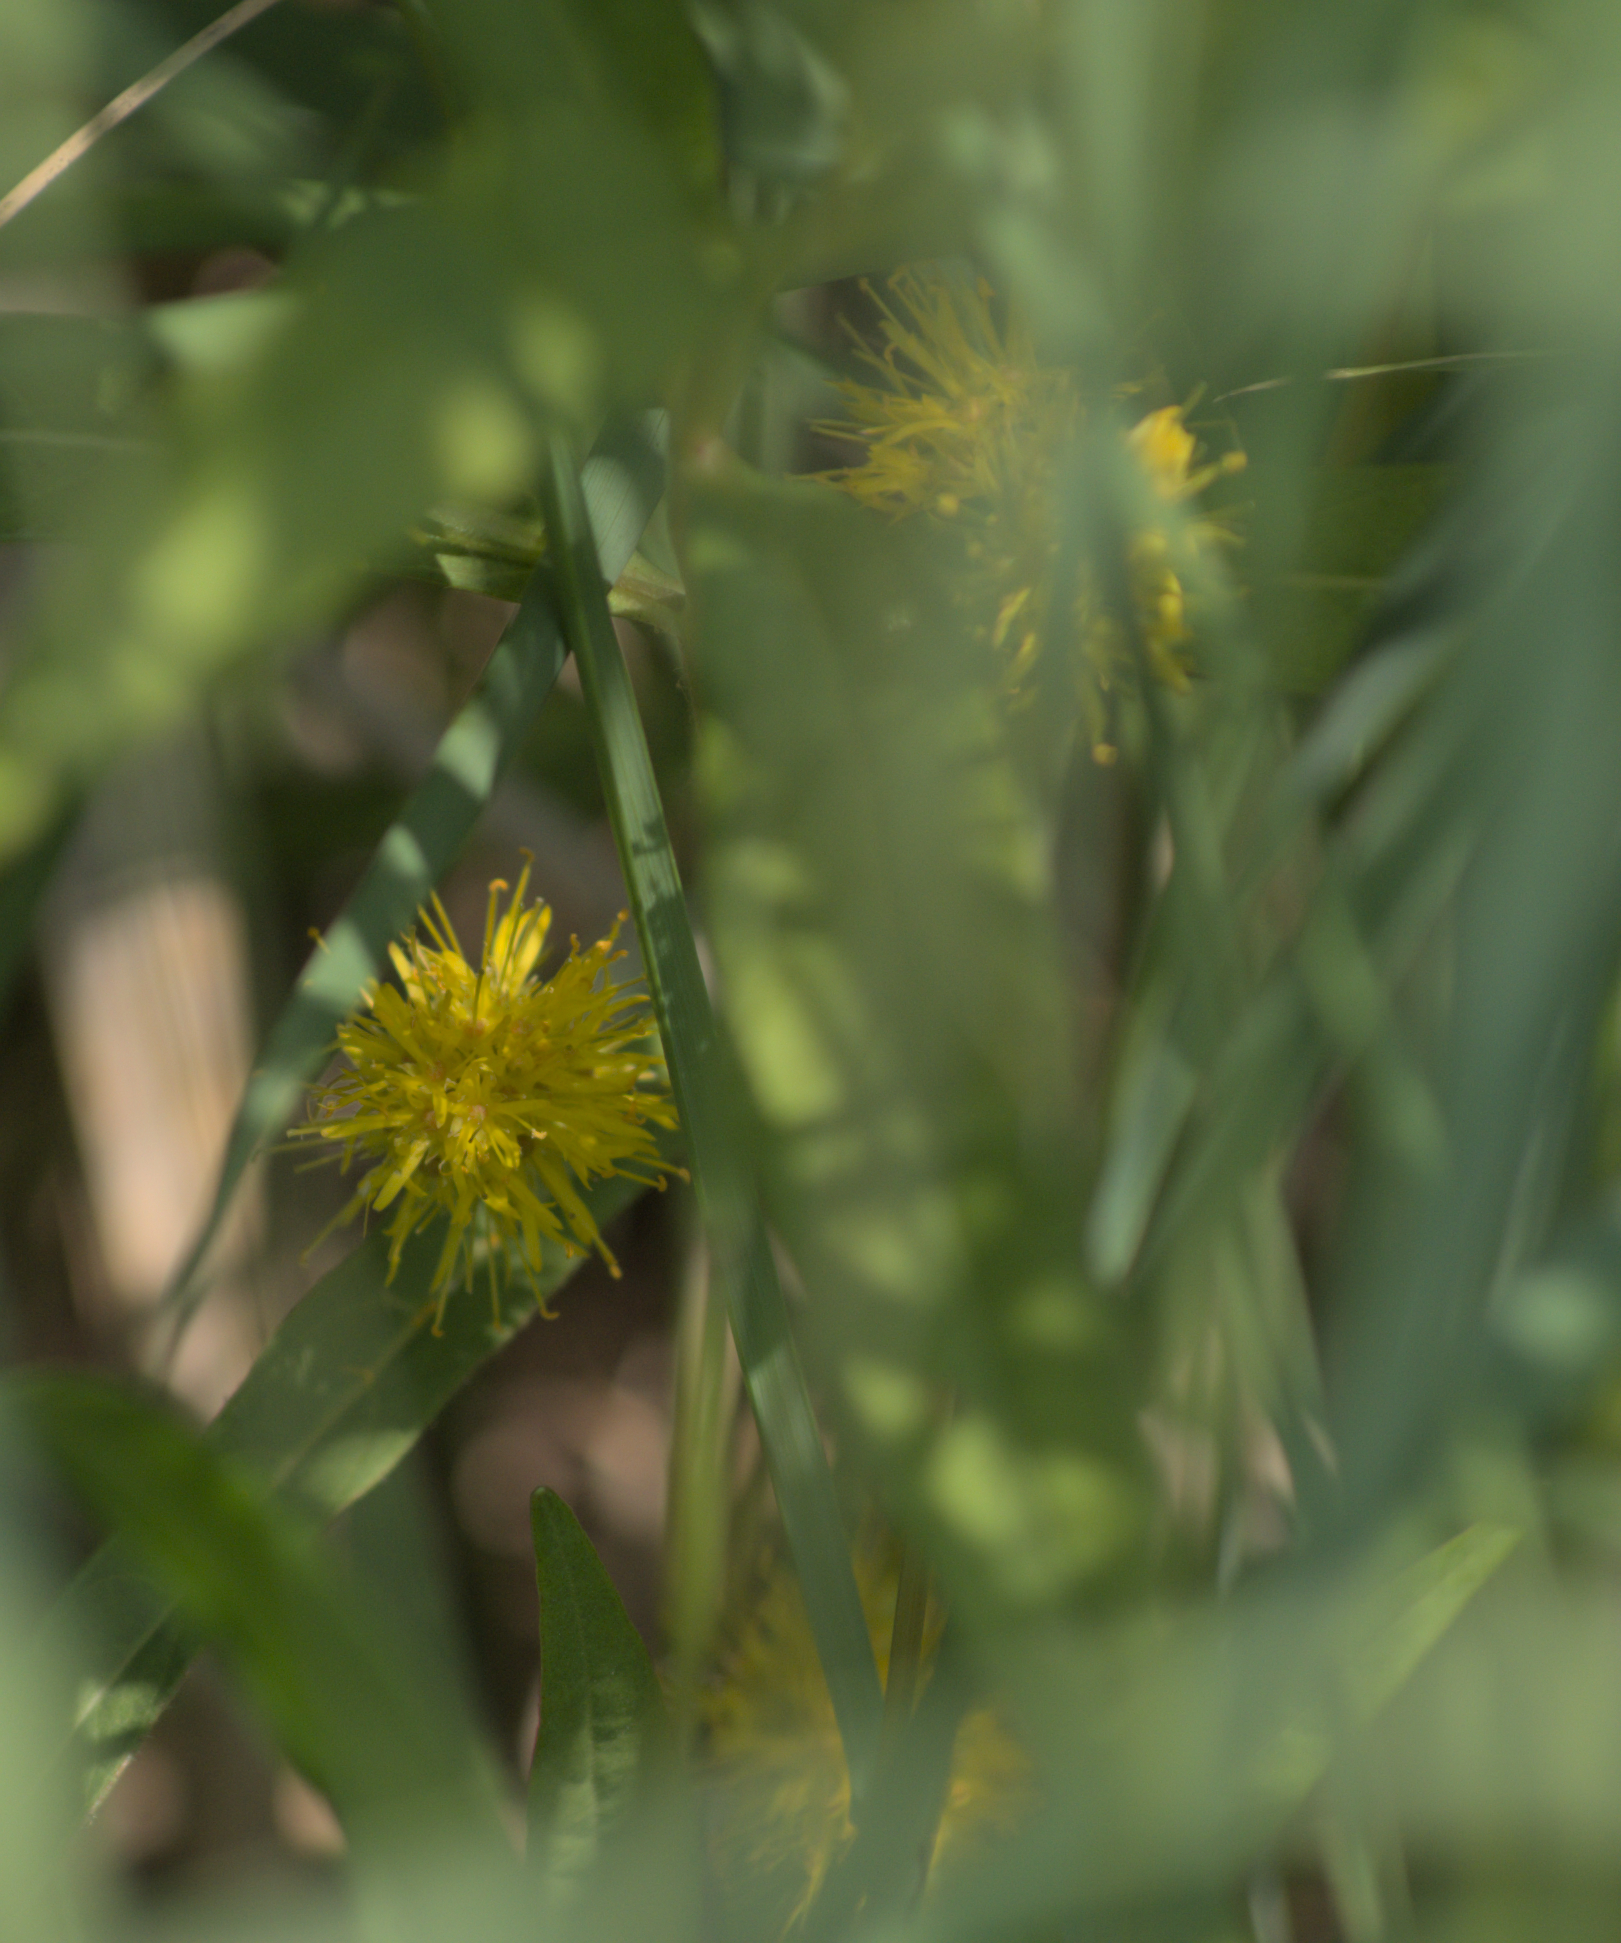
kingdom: Plantae
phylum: Tracheophyta
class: Magnoliopsida
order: Ericales
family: Primulaceae
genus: Lysimachia
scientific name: Lysimachia thyrsiflora
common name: Tufted loosestrife
